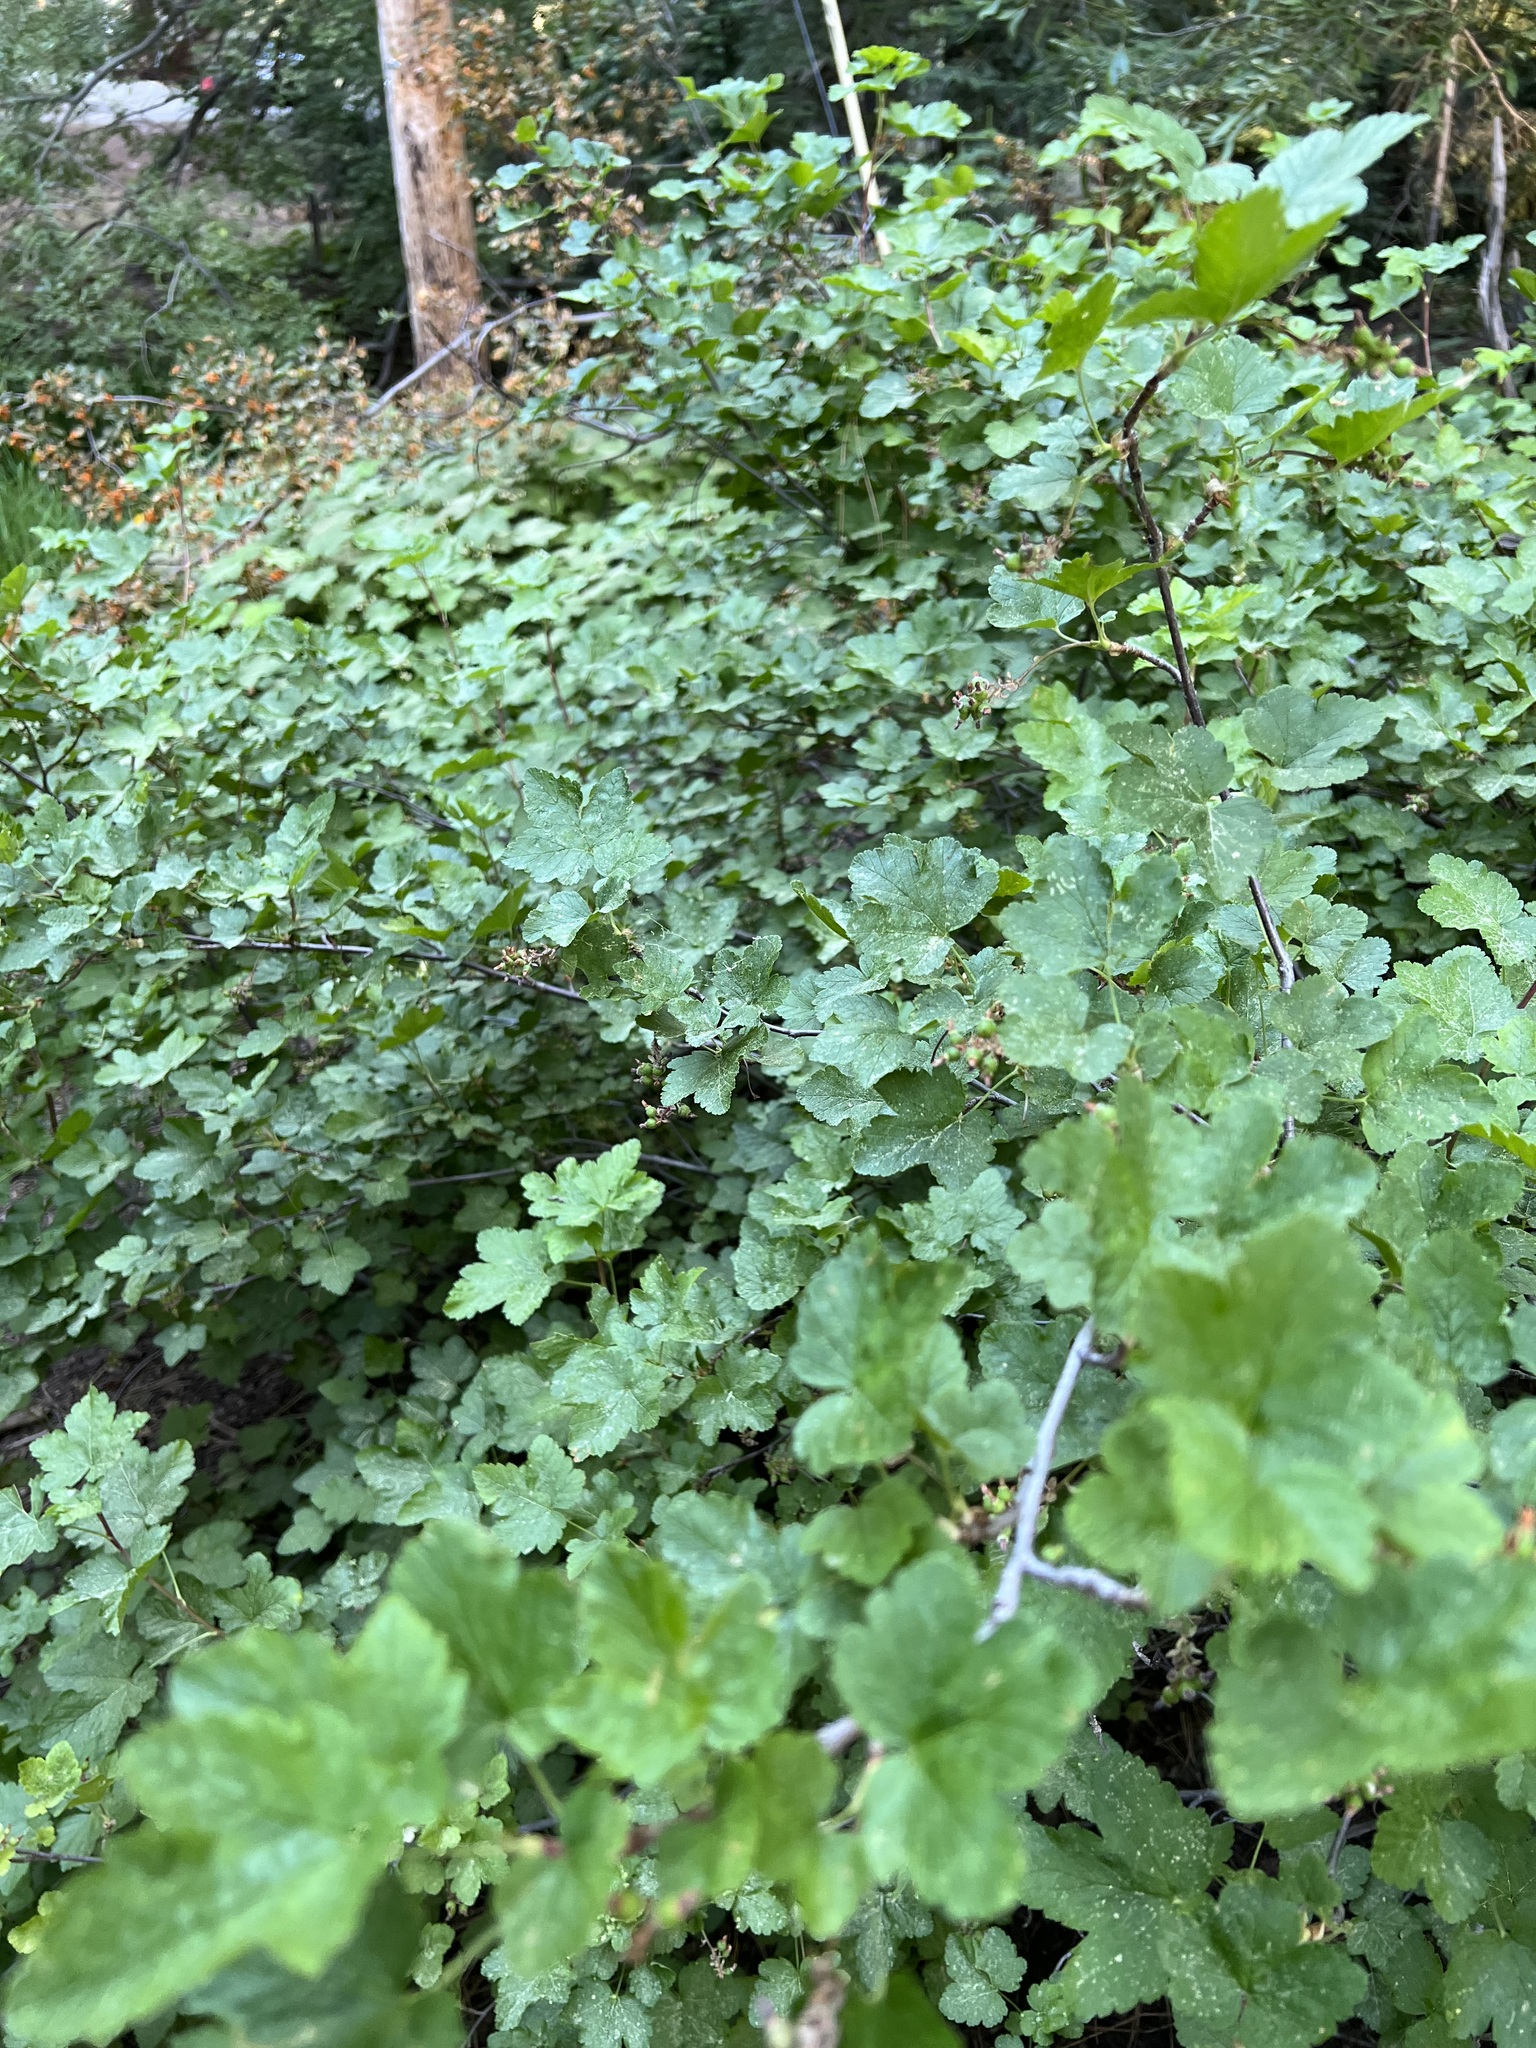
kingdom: Plantae
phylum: Tracheophyta
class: Magnoliopsida
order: Saxifragales
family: Grossulariaceae
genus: Ribes
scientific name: Ribes nevadense
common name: Mountain pink currant
